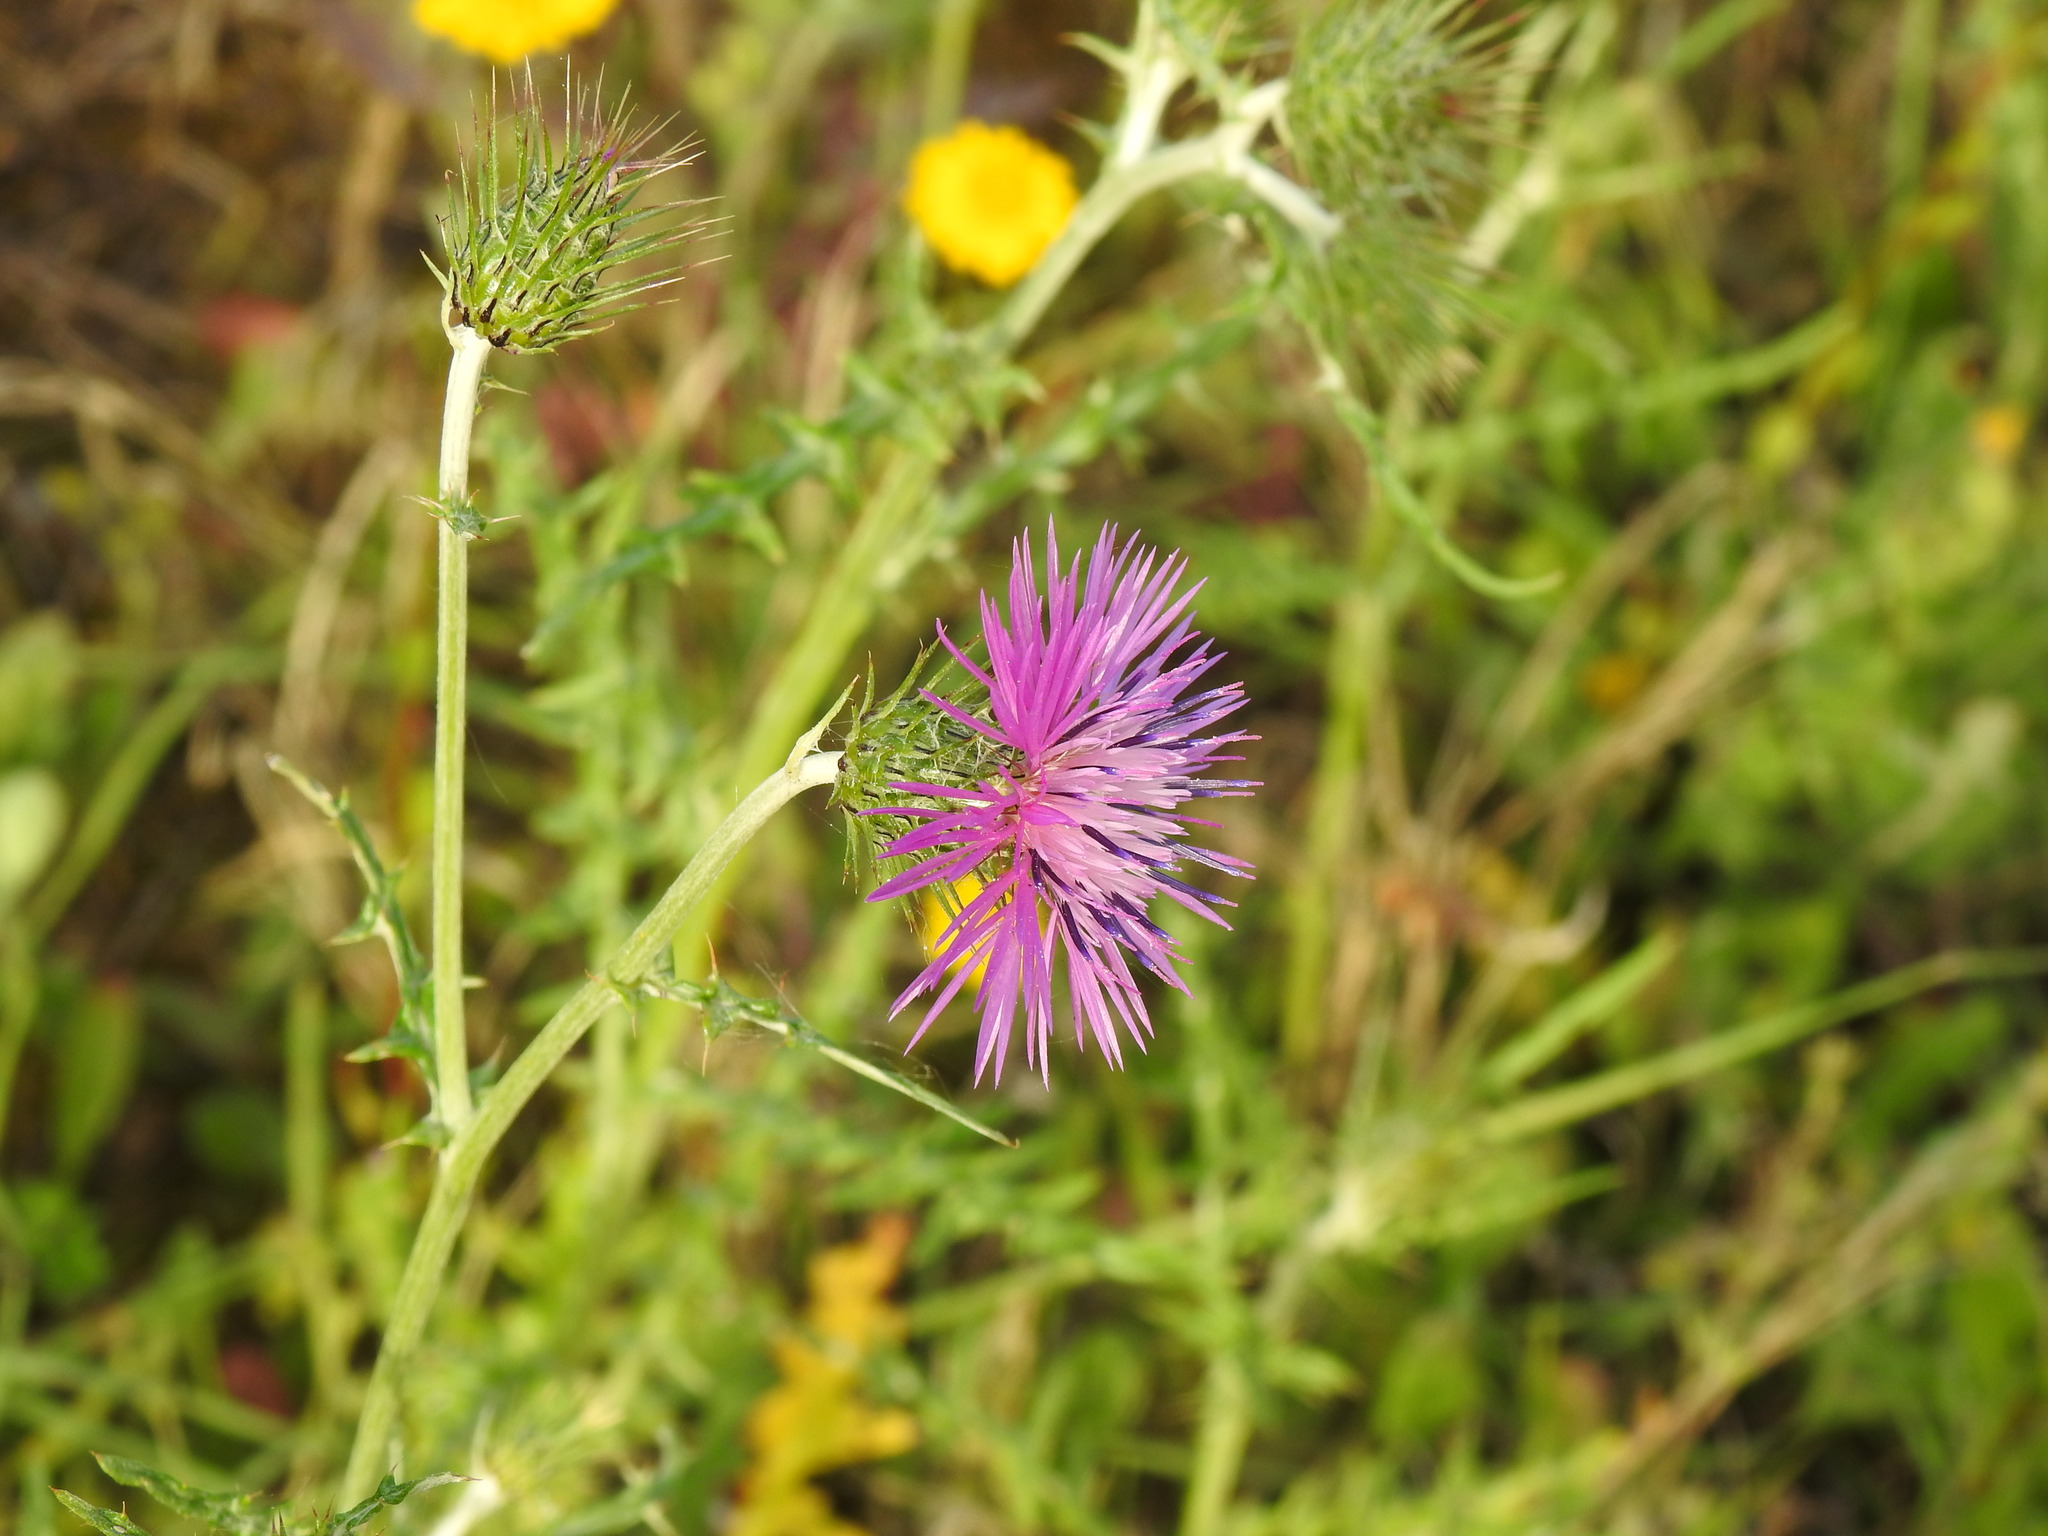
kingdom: Plantae
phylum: Tracheophyta
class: Magnoliopsida
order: Asterales
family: Asteraceae
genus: Galactites
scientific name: Galactites tomentosa
